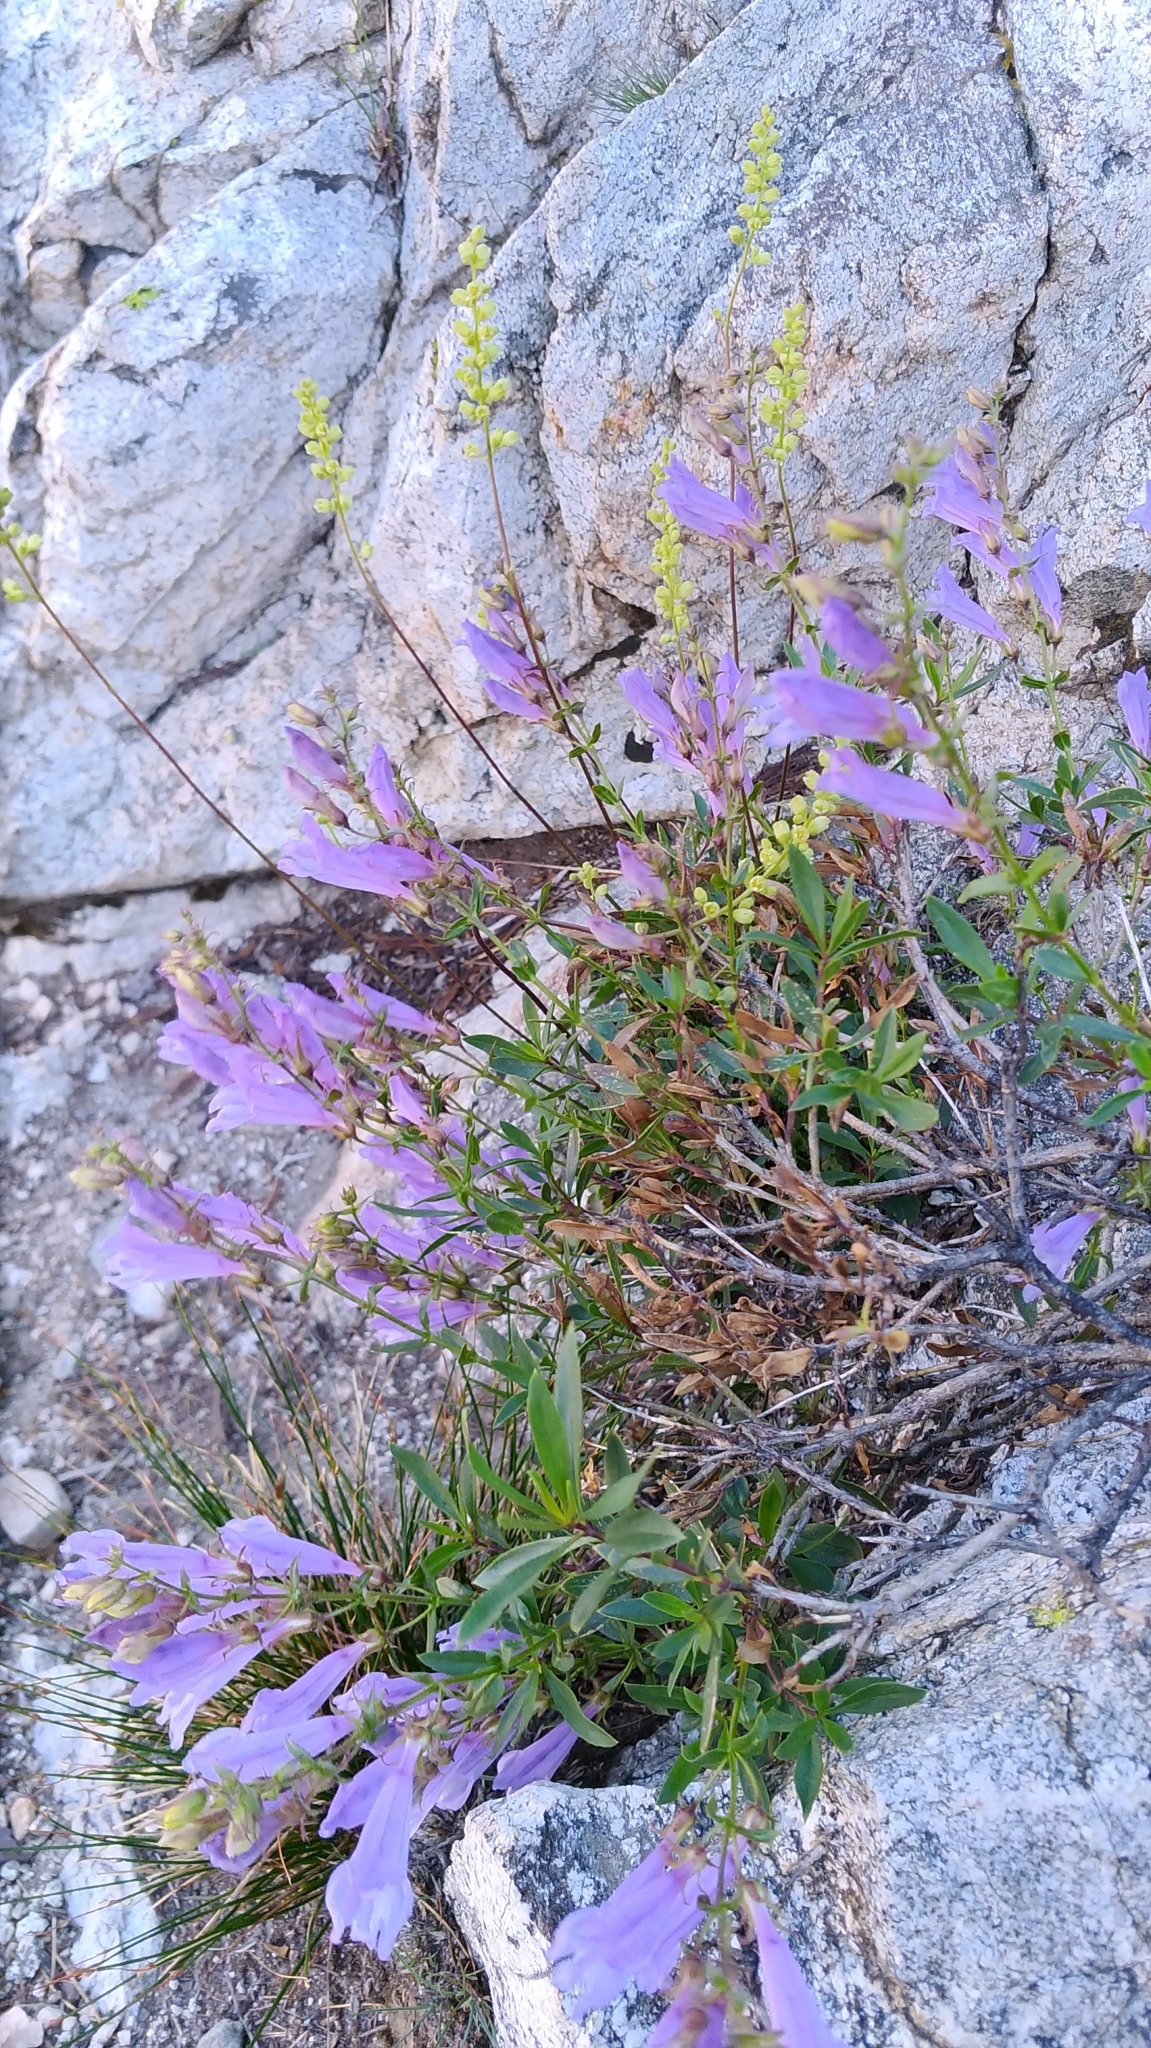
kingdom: Plantae
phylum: Tracheophyta
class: Magnoliopsida
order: Lamiales
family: Plantaginaceae
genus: Penstemon
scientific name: Penstemon fruticosus
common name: Bush penstemon
